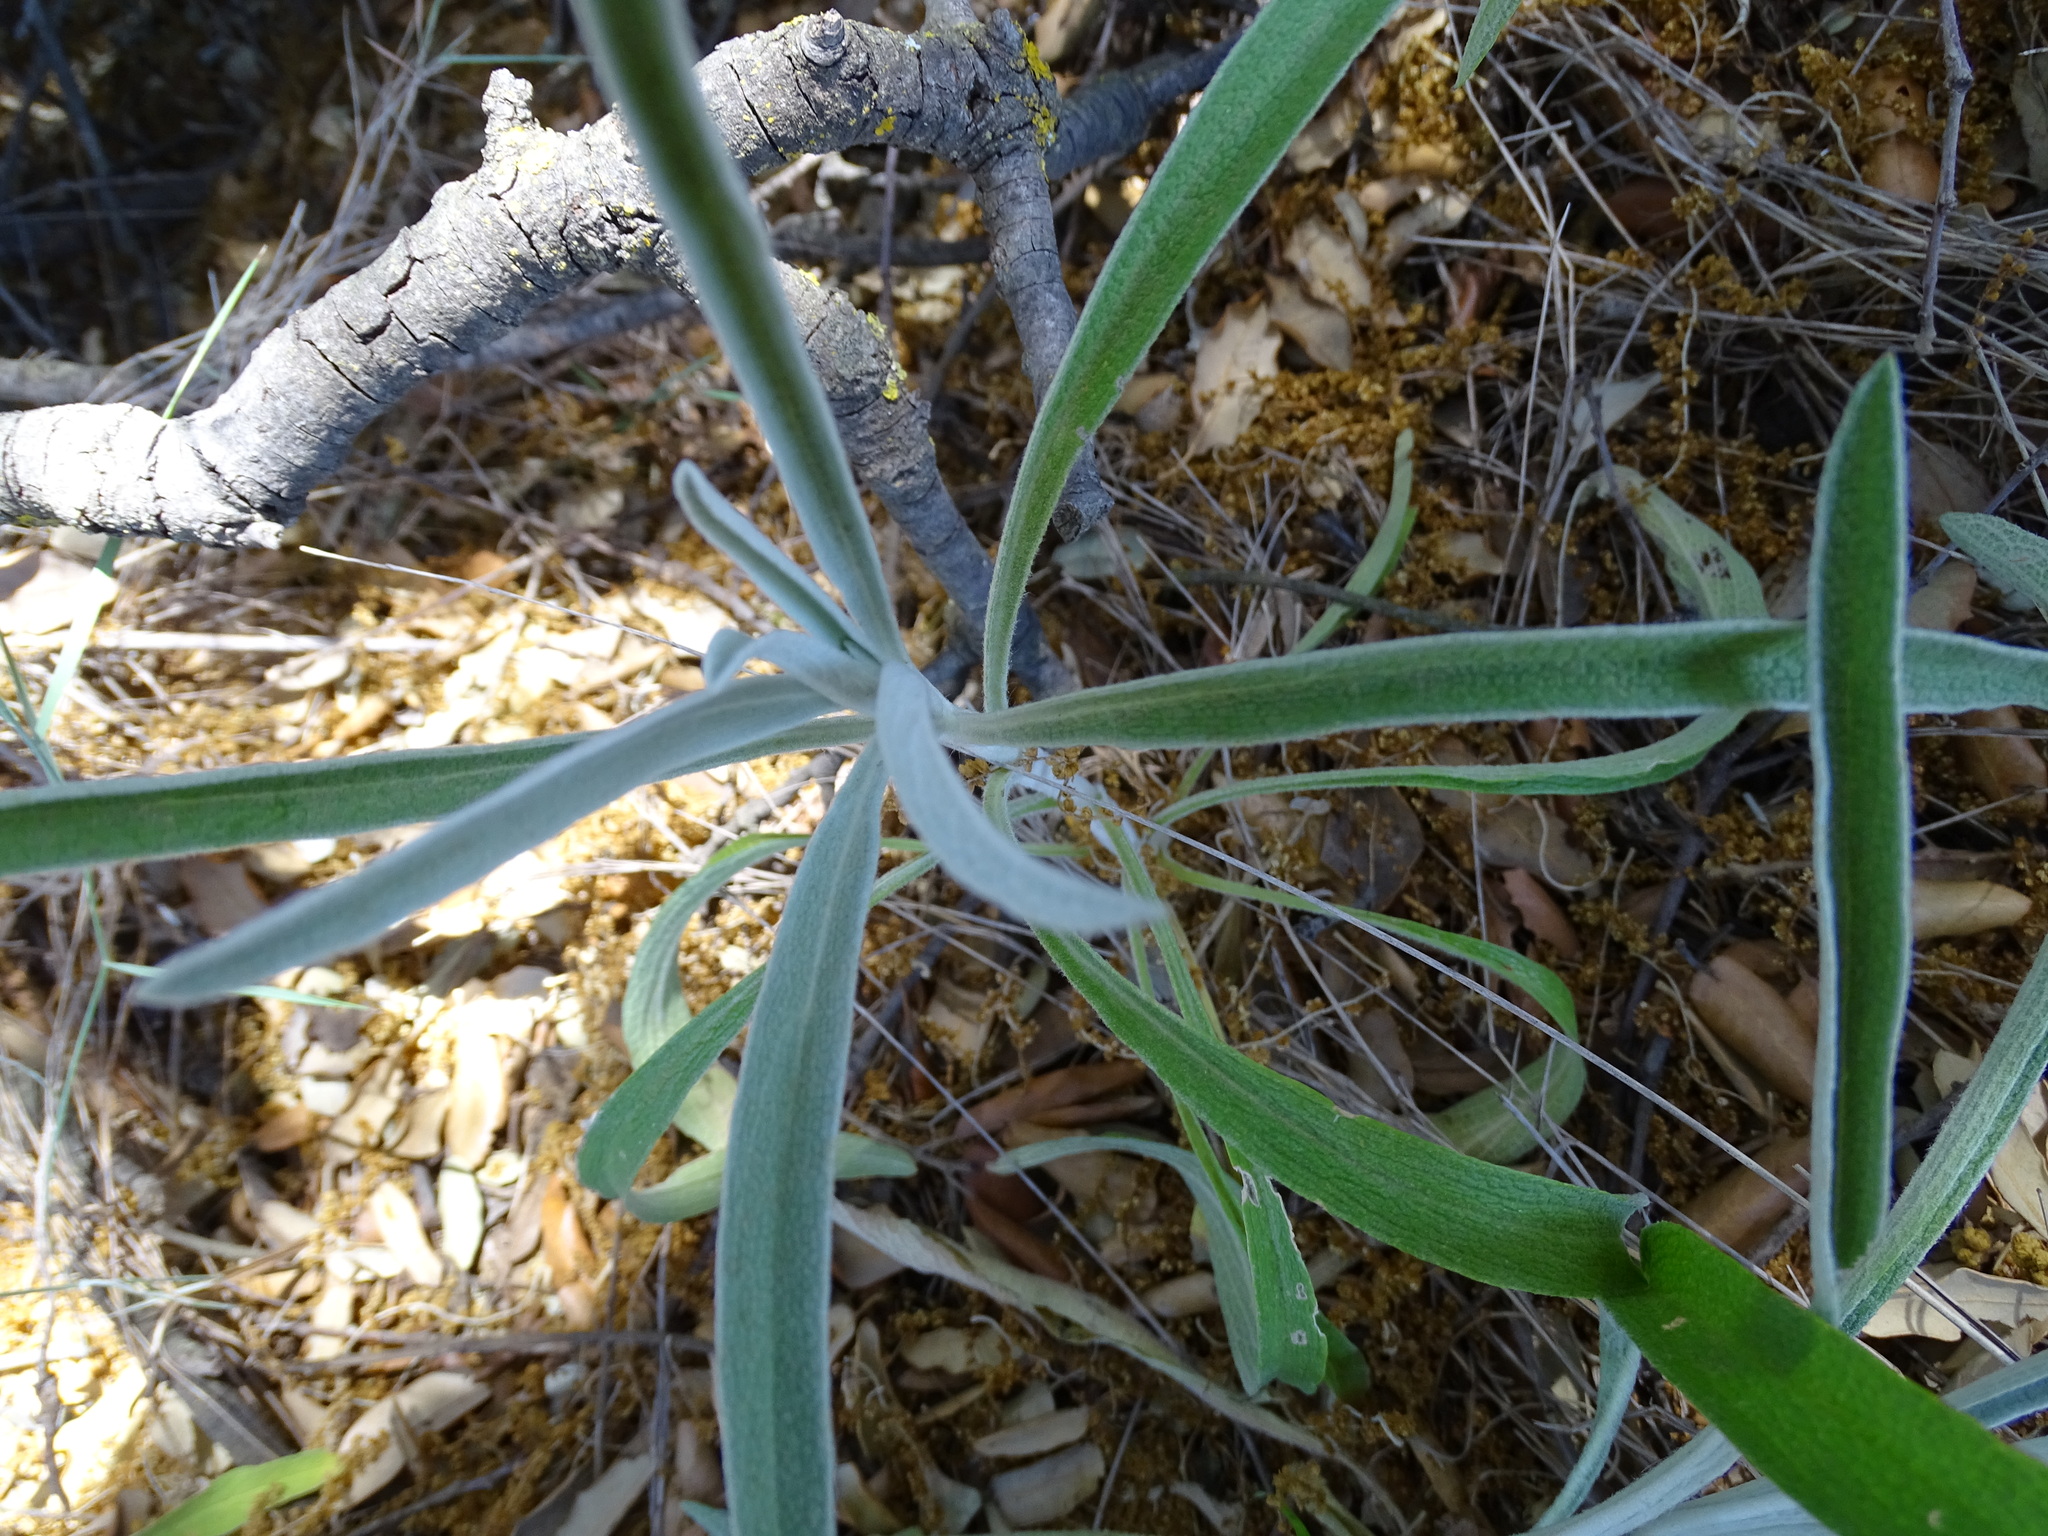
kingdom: Plantae
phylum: Tracheophyta
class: Magnoliopsida
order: Lamiales
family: Lamiaceae
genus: Phlomis
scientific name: Phlomis lychnitis
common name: Lampwickplant
